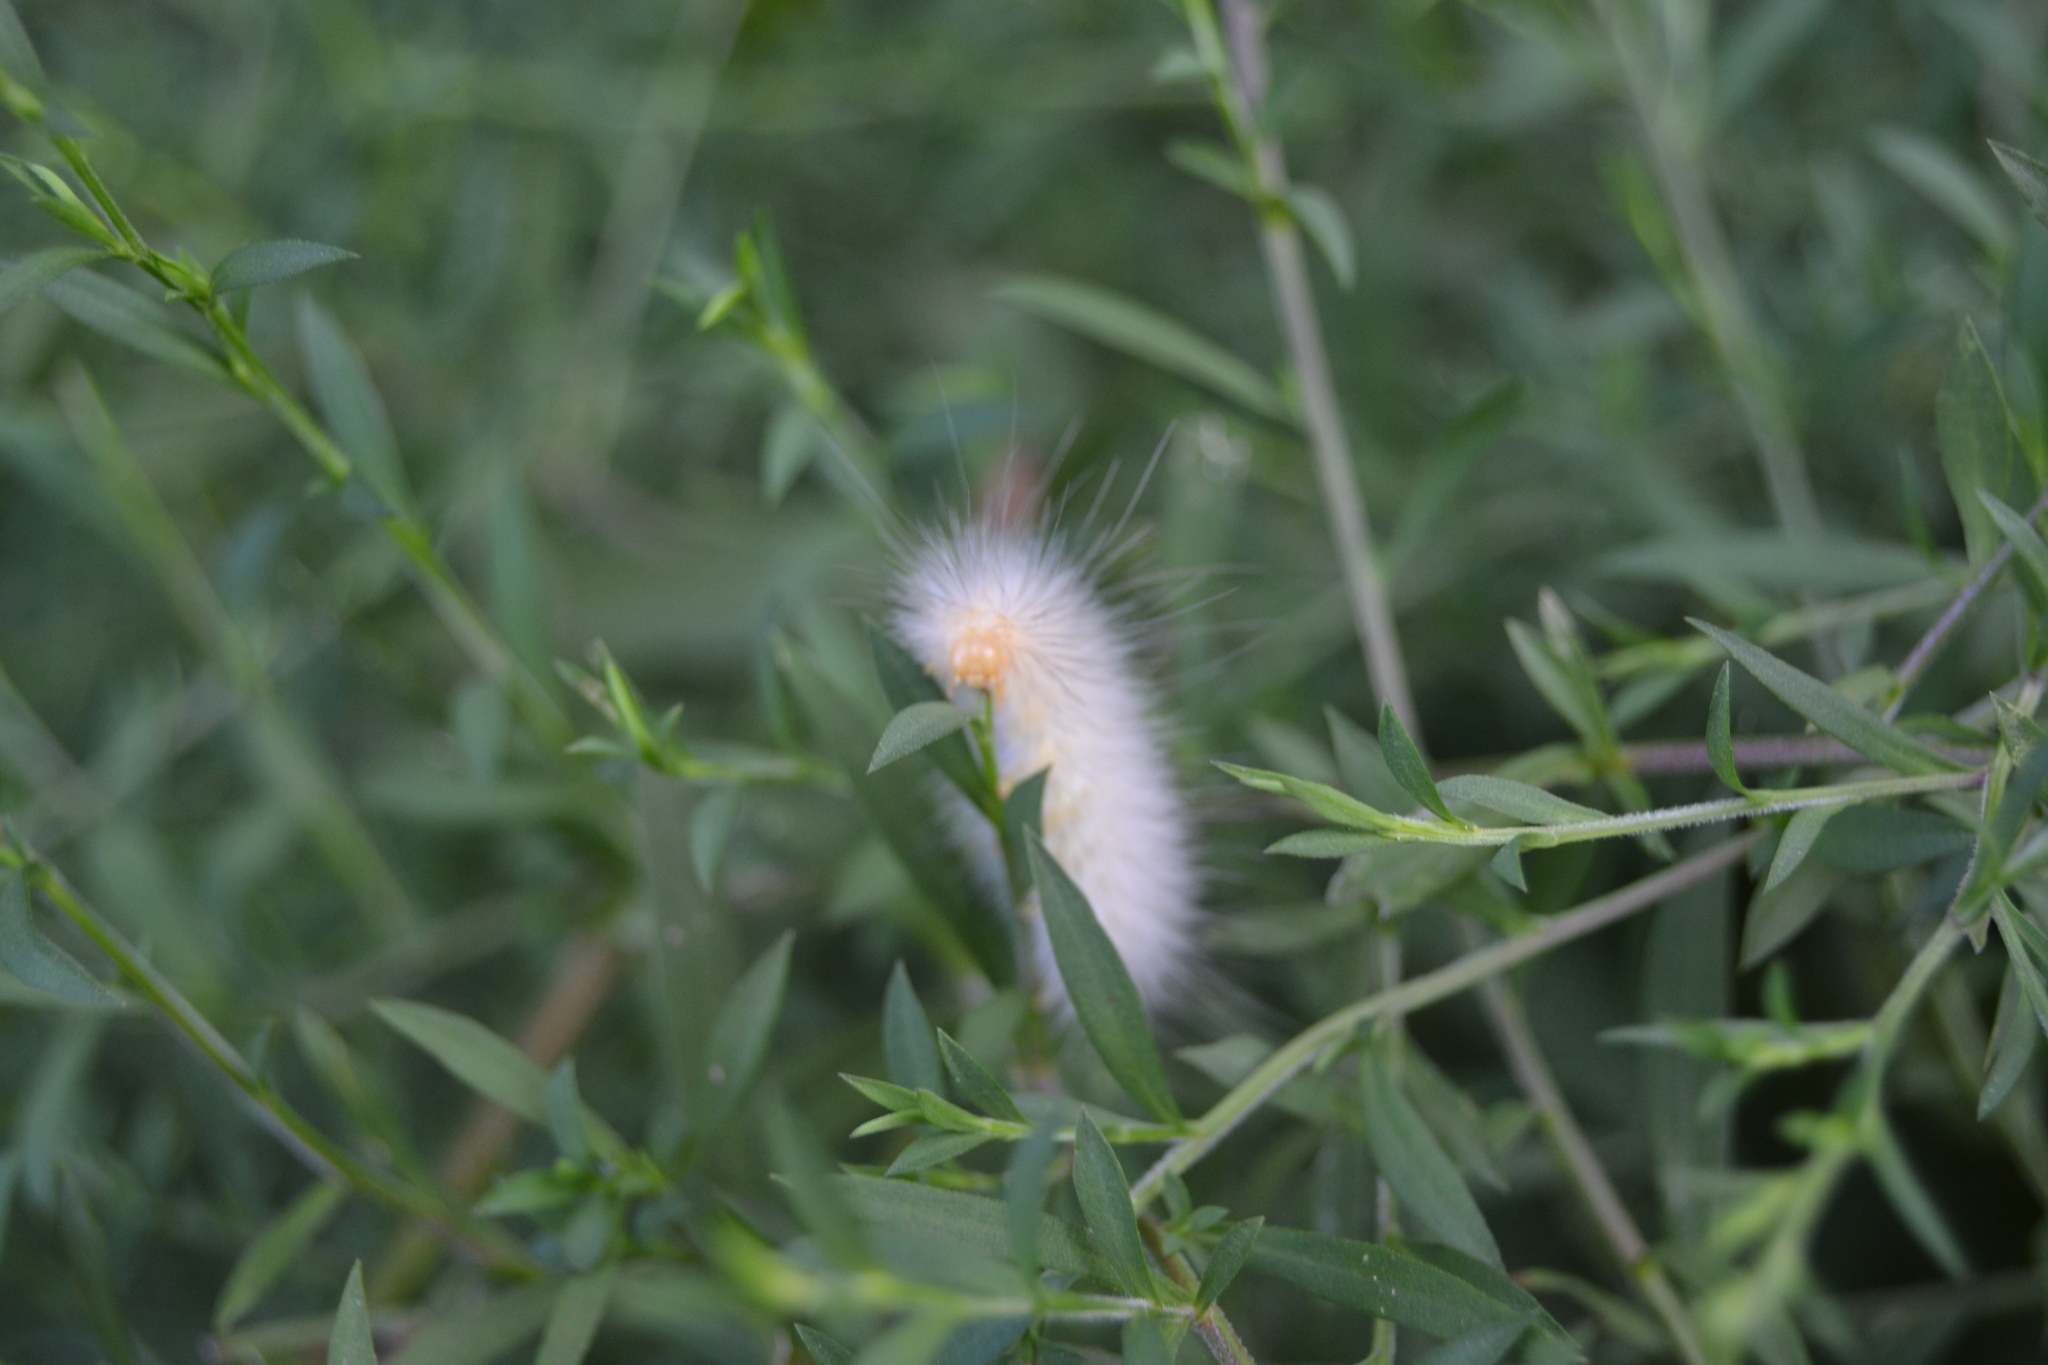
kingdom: Animalia
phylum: Arthropoda
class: Insecta
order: Lepidoptera
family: Erebidae
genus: Spilosoma
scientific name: Spilosoma virginica
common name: Virginia tiger moth
